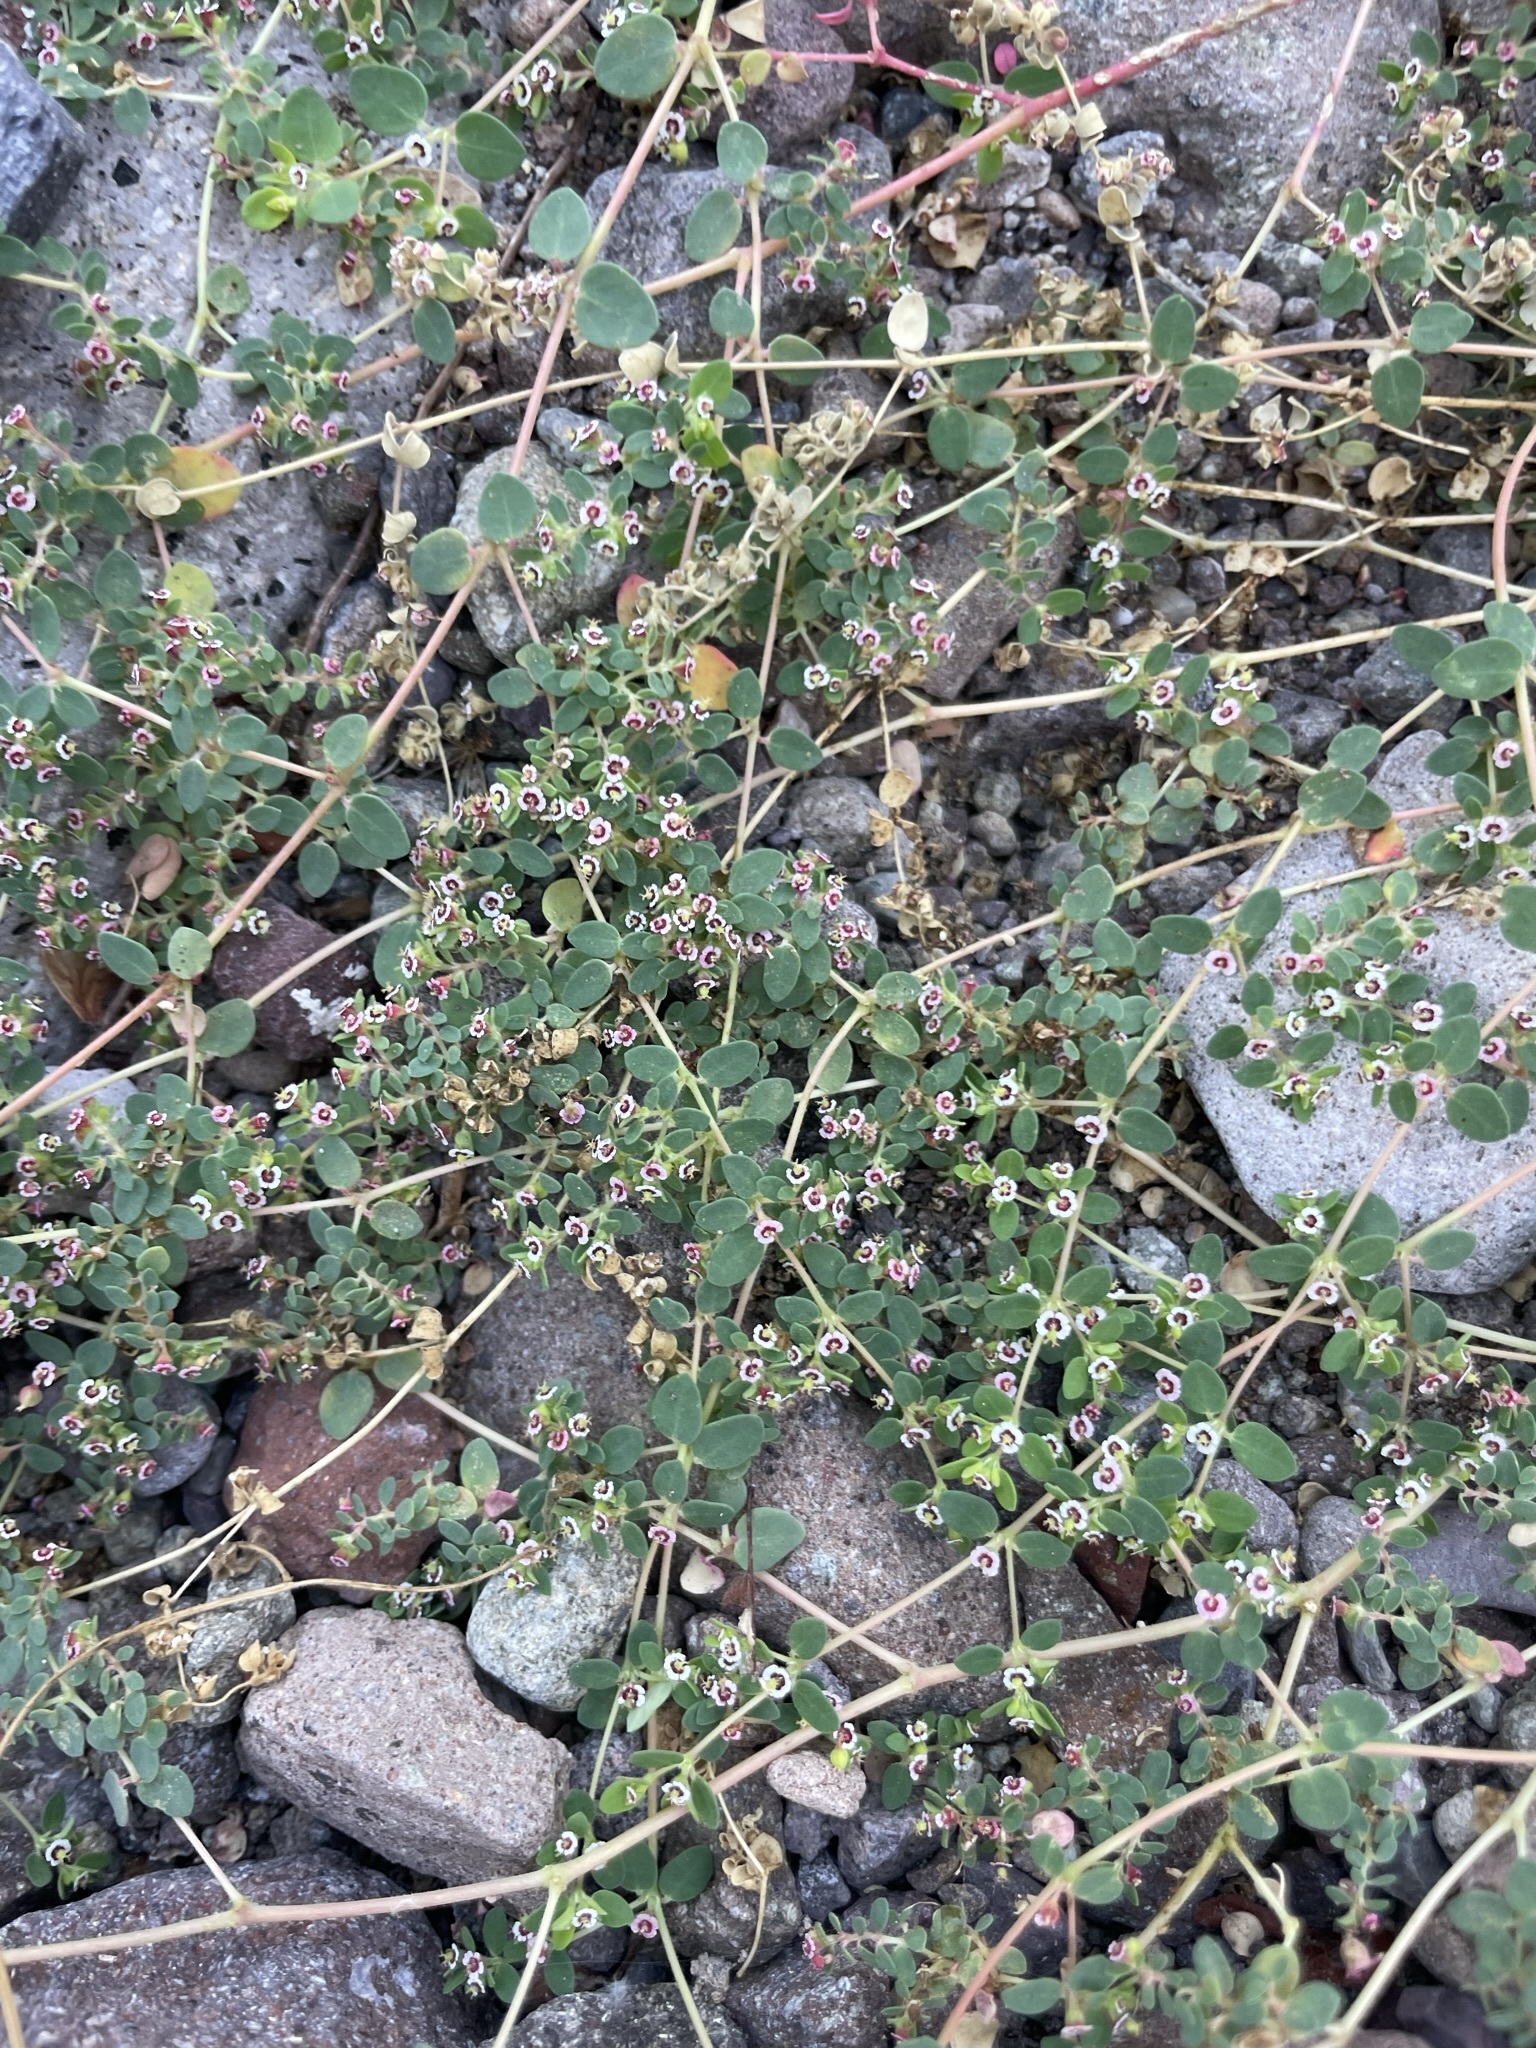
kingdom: Plantae
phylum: Tracheophyta
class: Magnoliopsida
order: Malpighiales
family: Euphorbiaceae
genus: Euphorbia
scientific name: Euphorbia polycarpa
